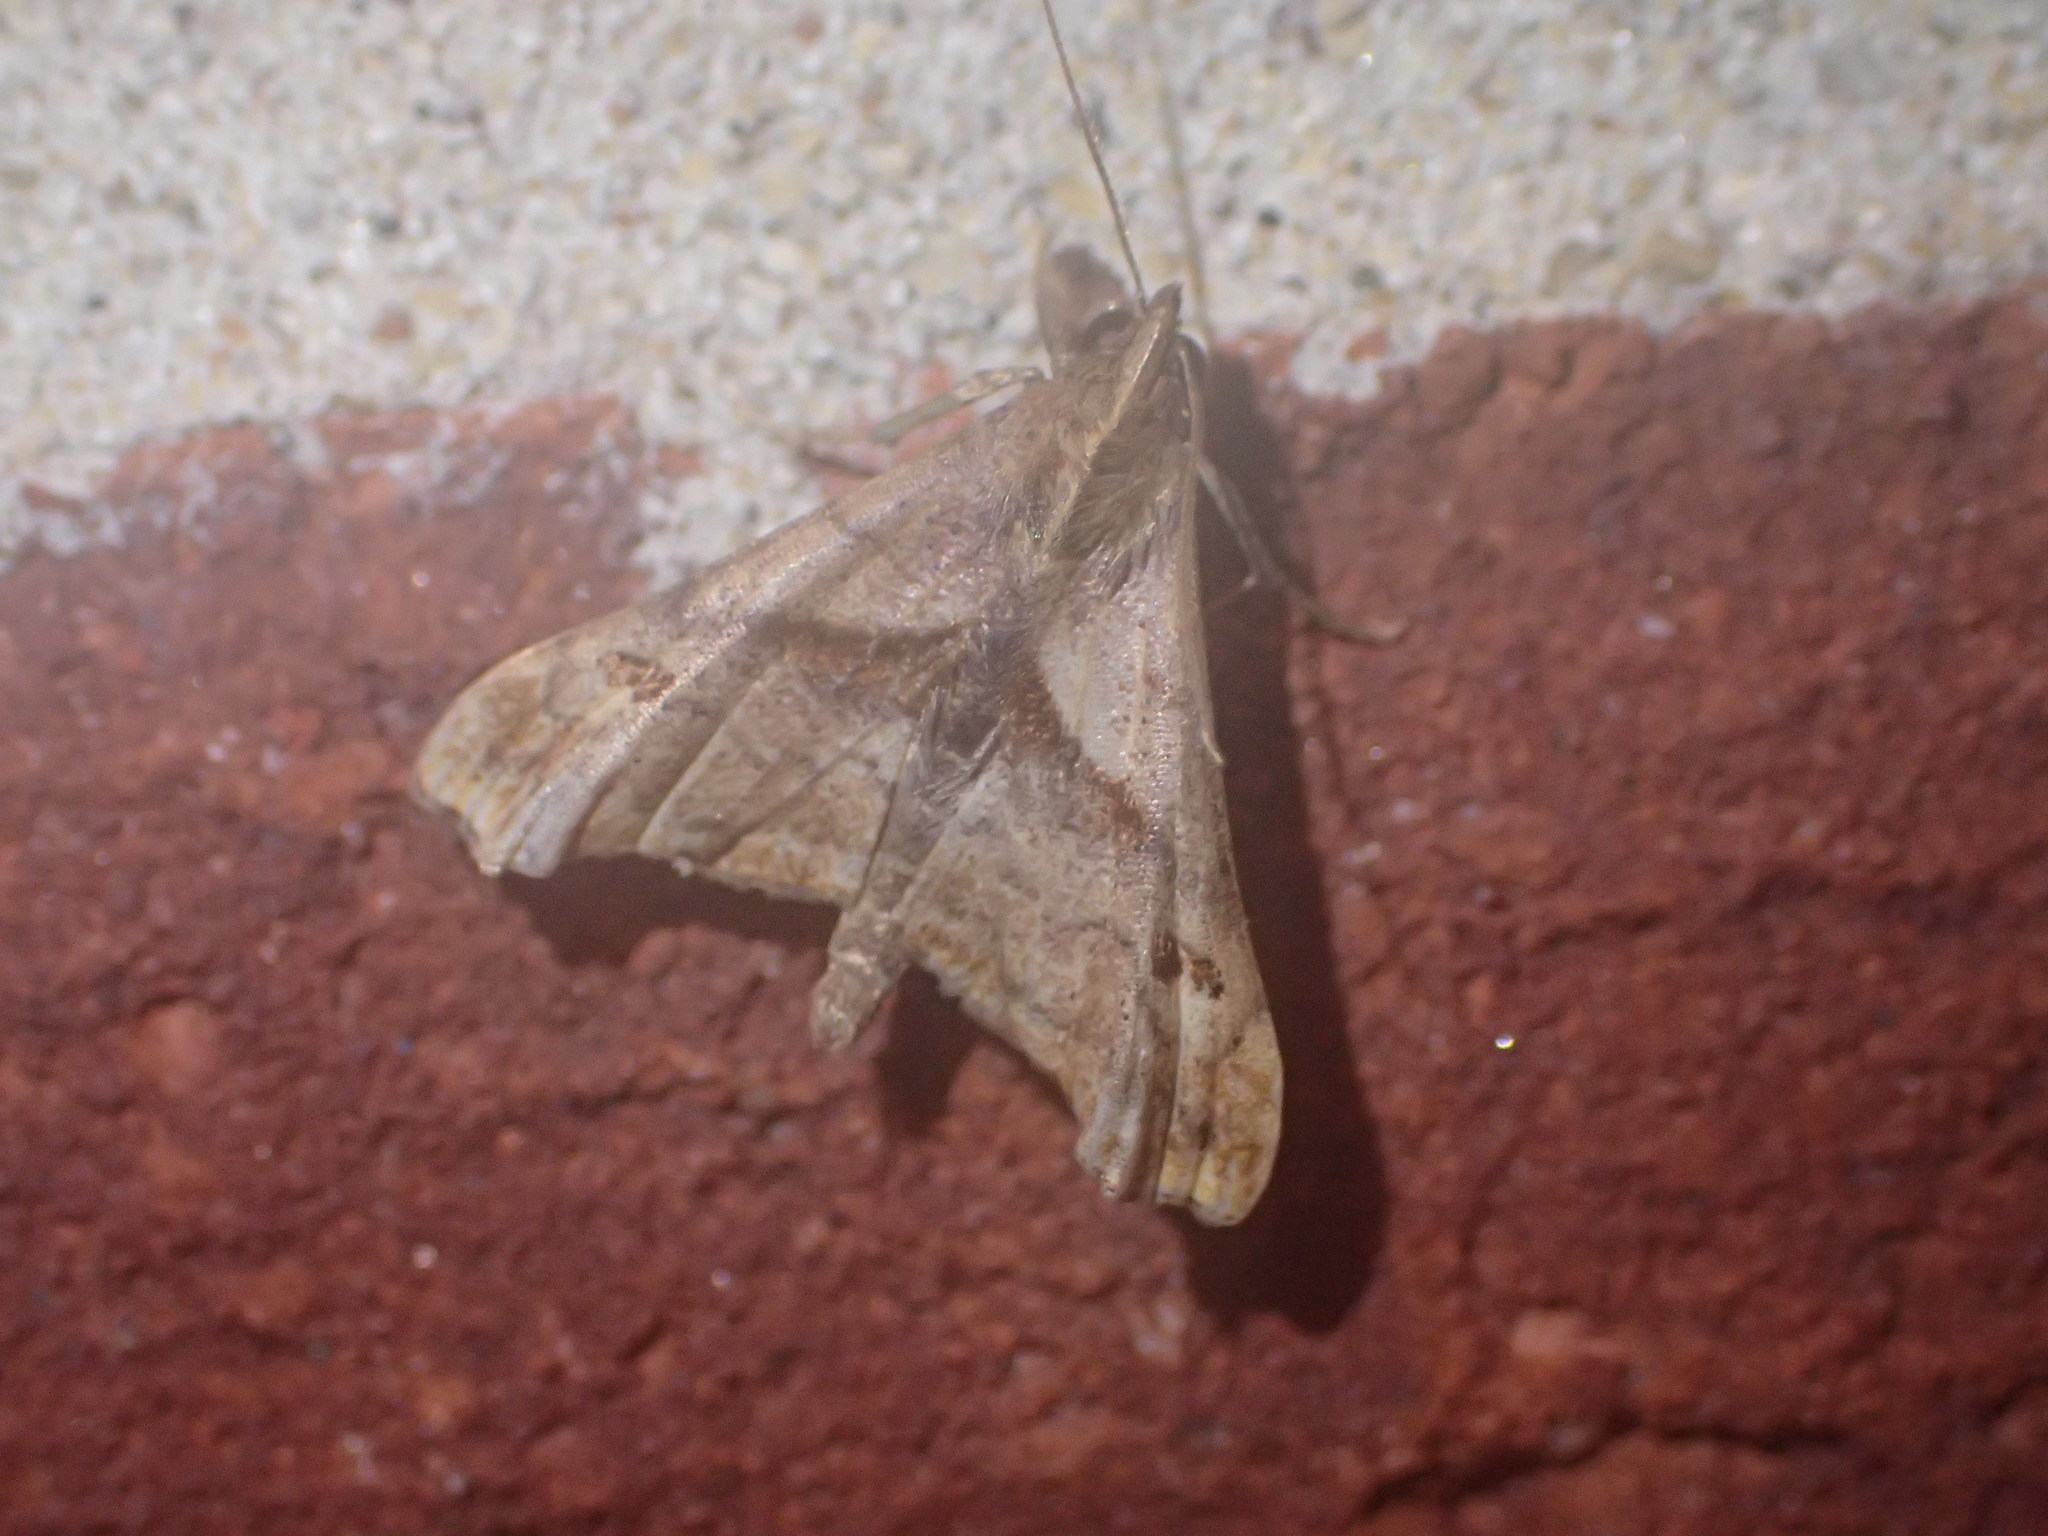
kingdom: Animalia
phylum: Arthropoda
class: Insecta
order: Lepidoptera
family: Erebidae
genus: Palthis
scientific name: Palthis angulalis
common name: Dark-spotted palthis moth
